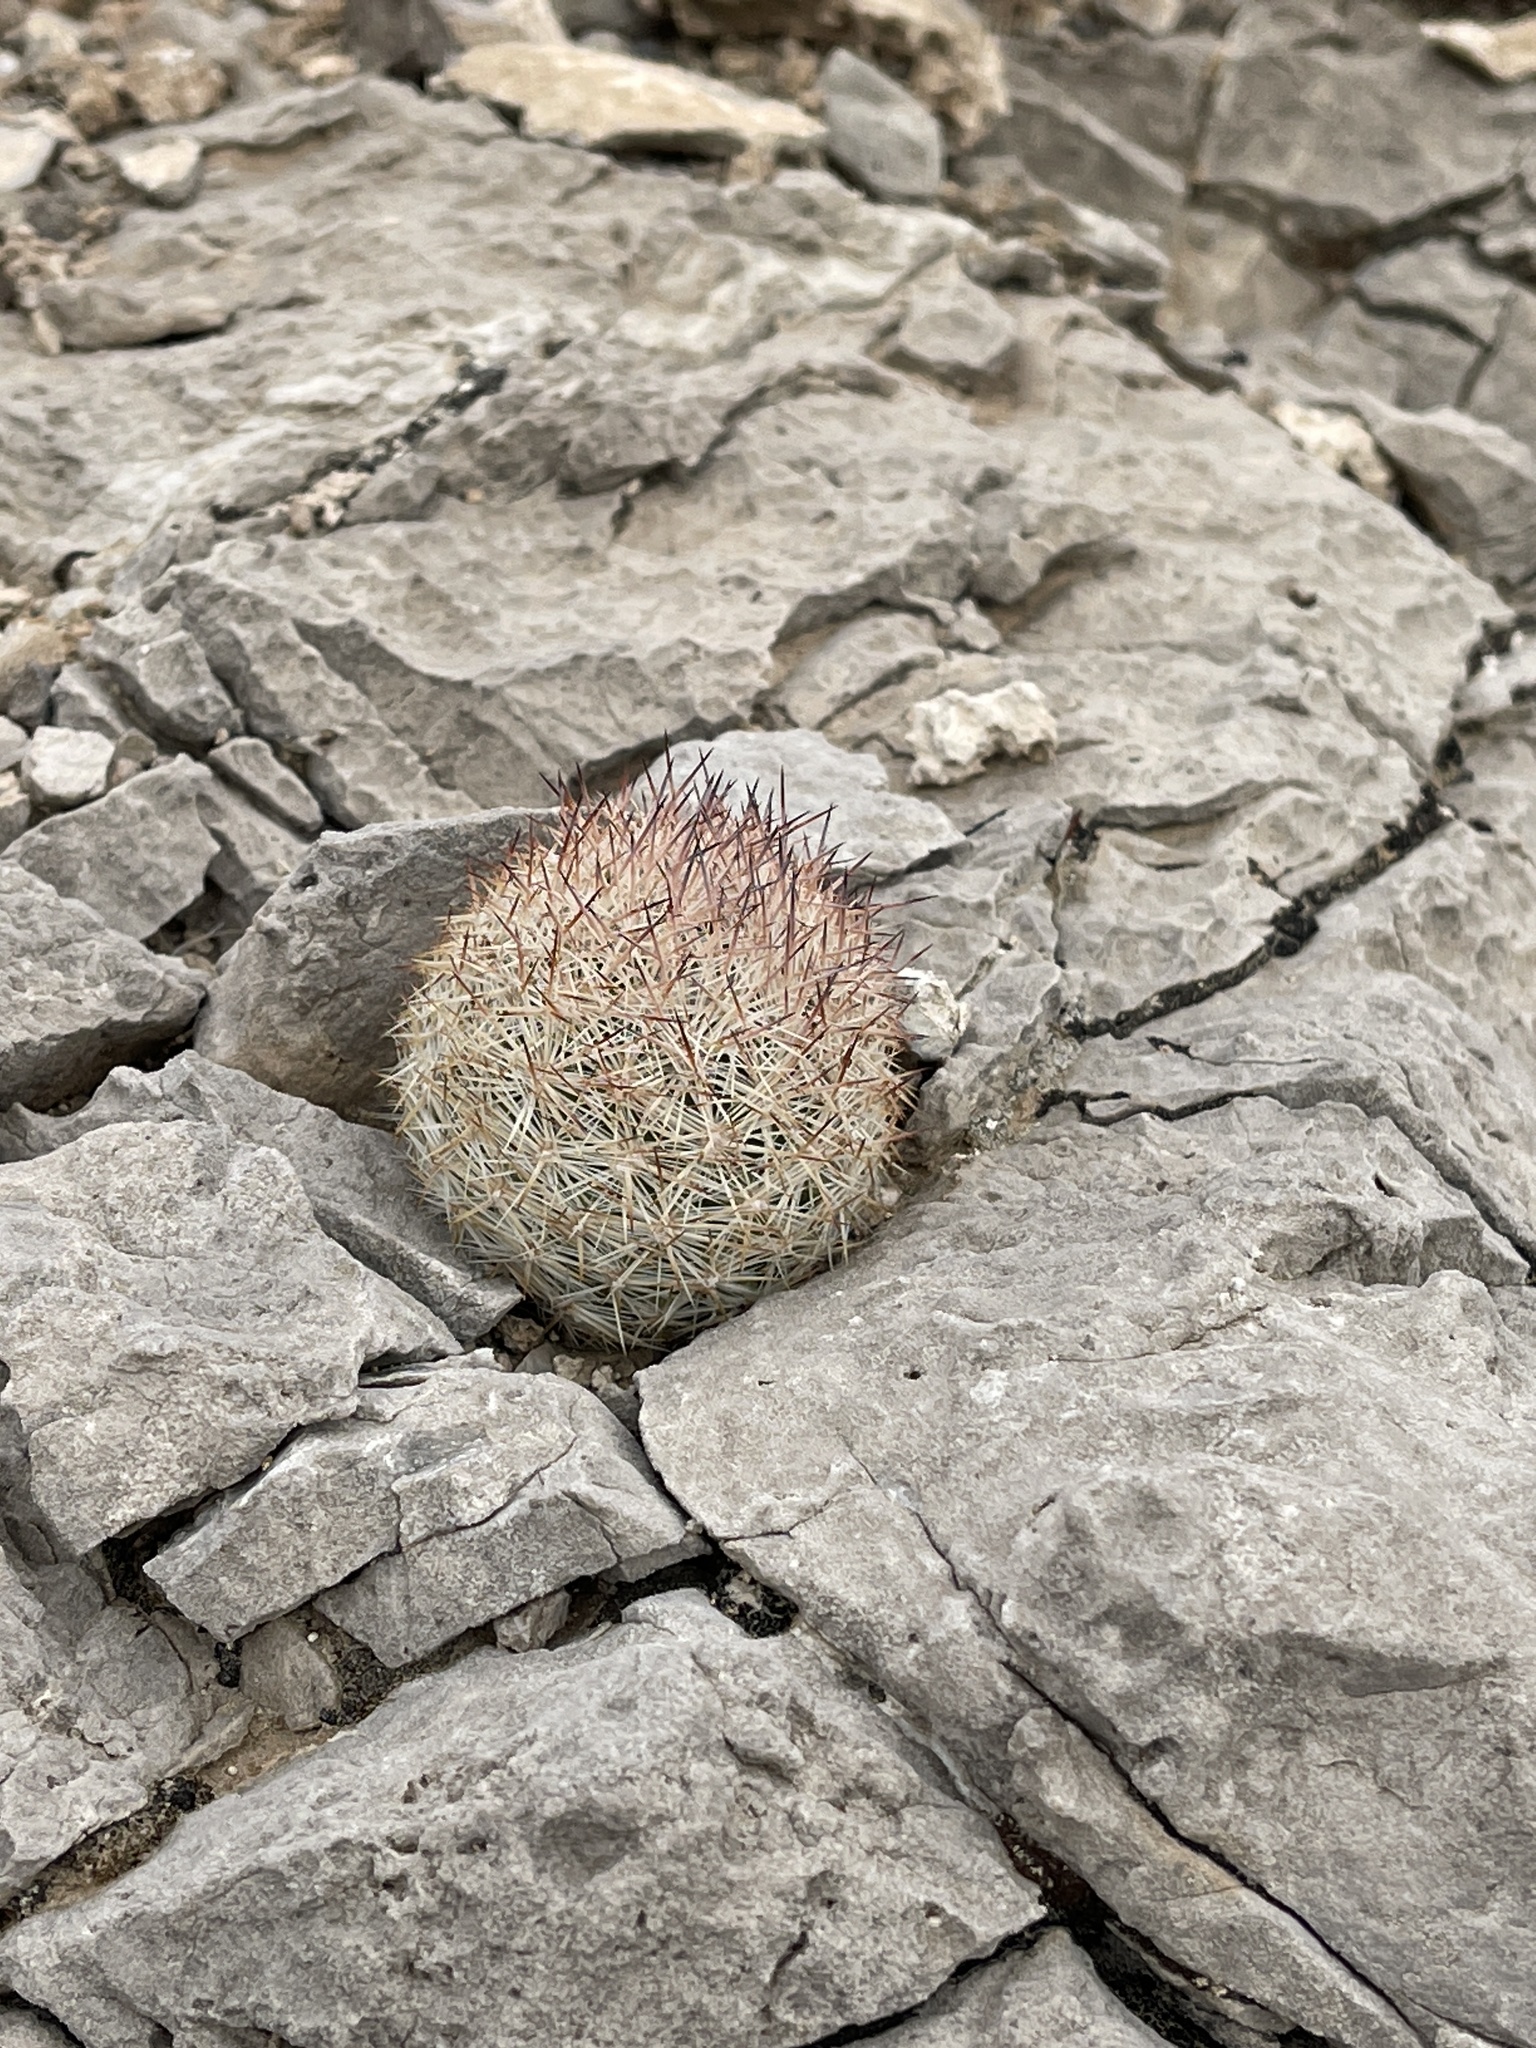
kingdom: Plantae
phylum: Tracheophyta
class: Magnoliopsida
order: Caryophyllales
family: Cactaceae
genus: Pelecyphora
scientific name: Pelecyphora dasyacantha
